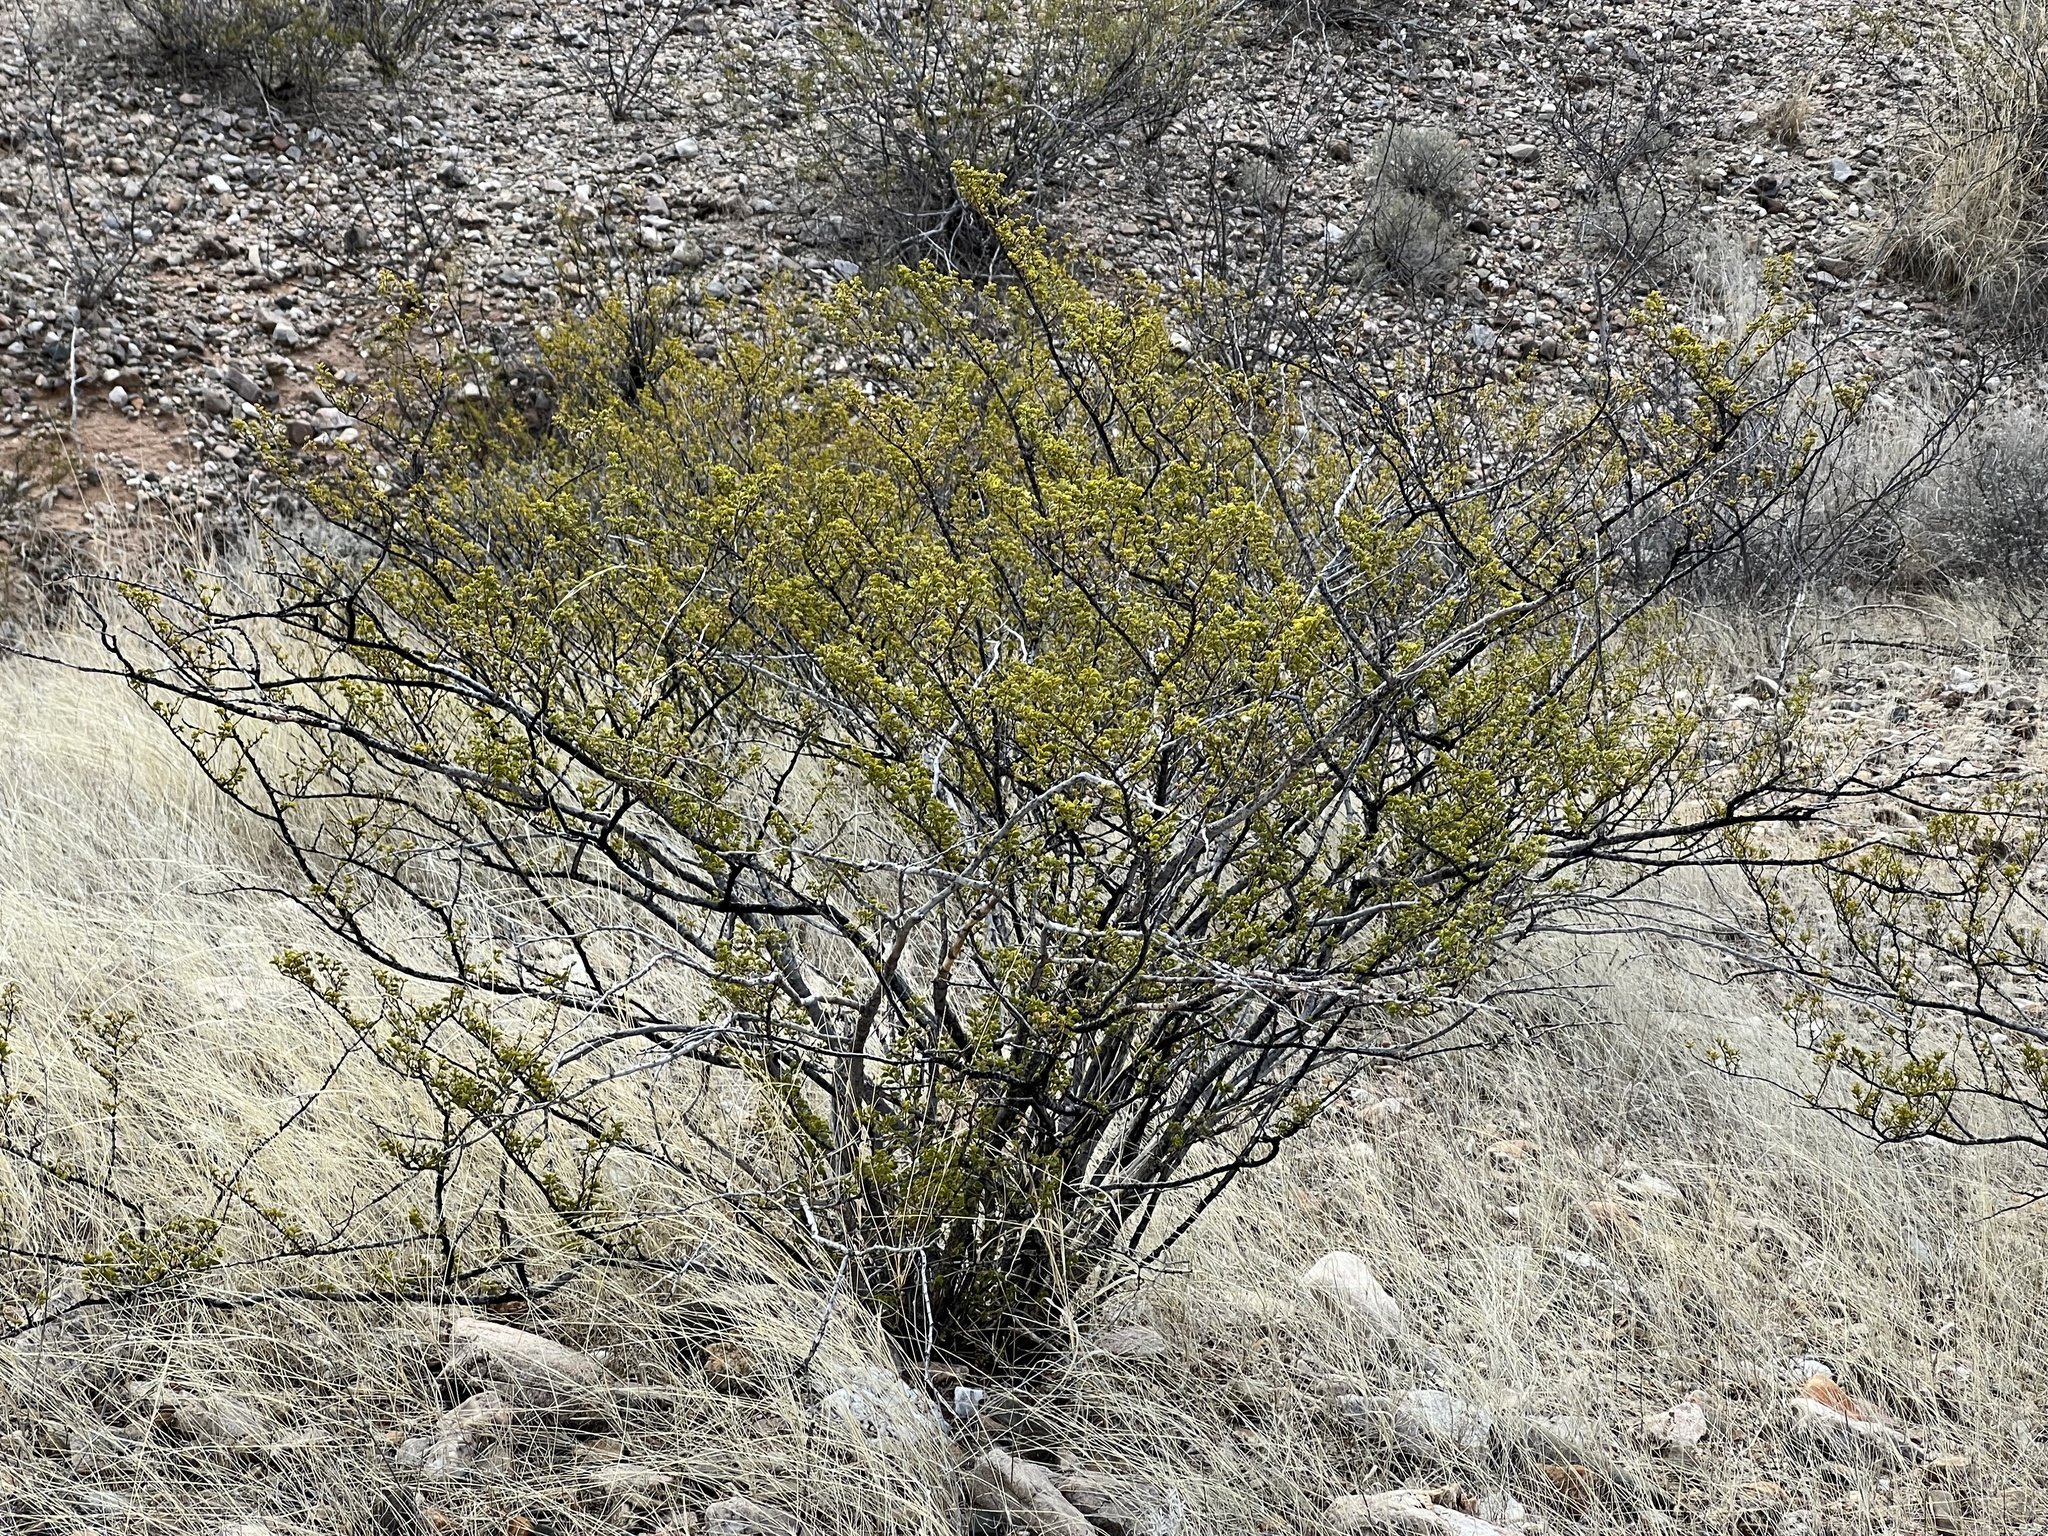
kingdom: Plantae
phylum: Tracheophyta
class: Magnoliopsida
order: Zygophyllales
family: Zygophyllaceae
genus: Larrea
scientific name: Larrea tridentata
